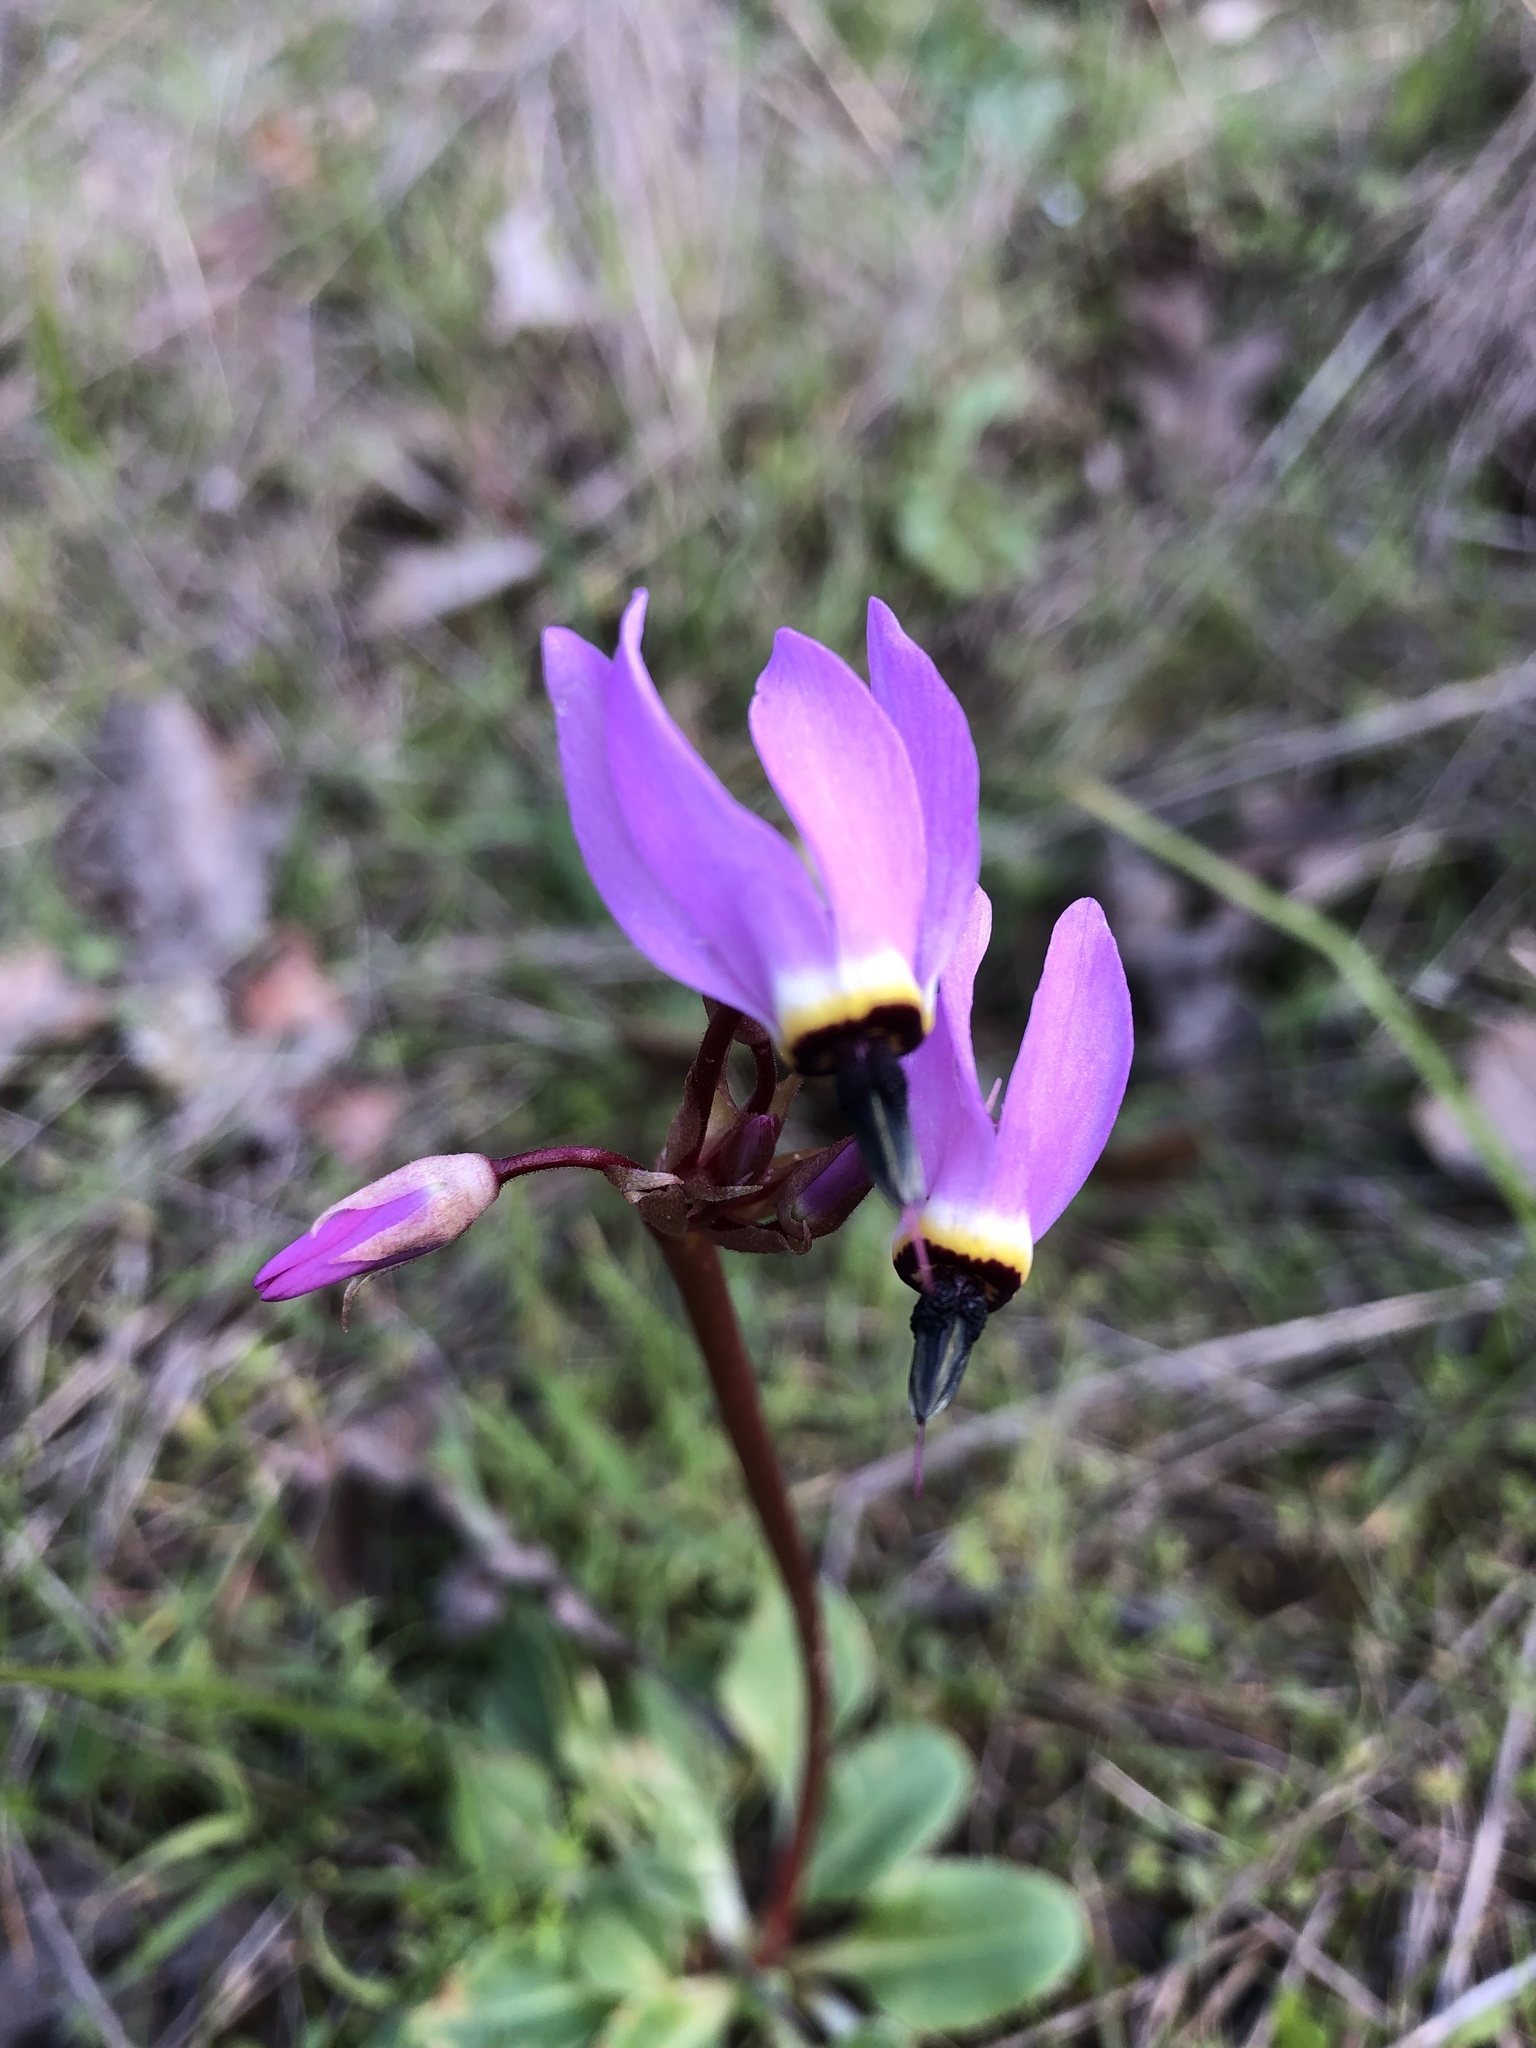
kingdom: Plantae
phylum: Tracheophyta
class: Magnoliopsida
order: Ericales
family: Primulaceae
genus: Dodecatheon
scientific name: Dodecatheon hendersonii
